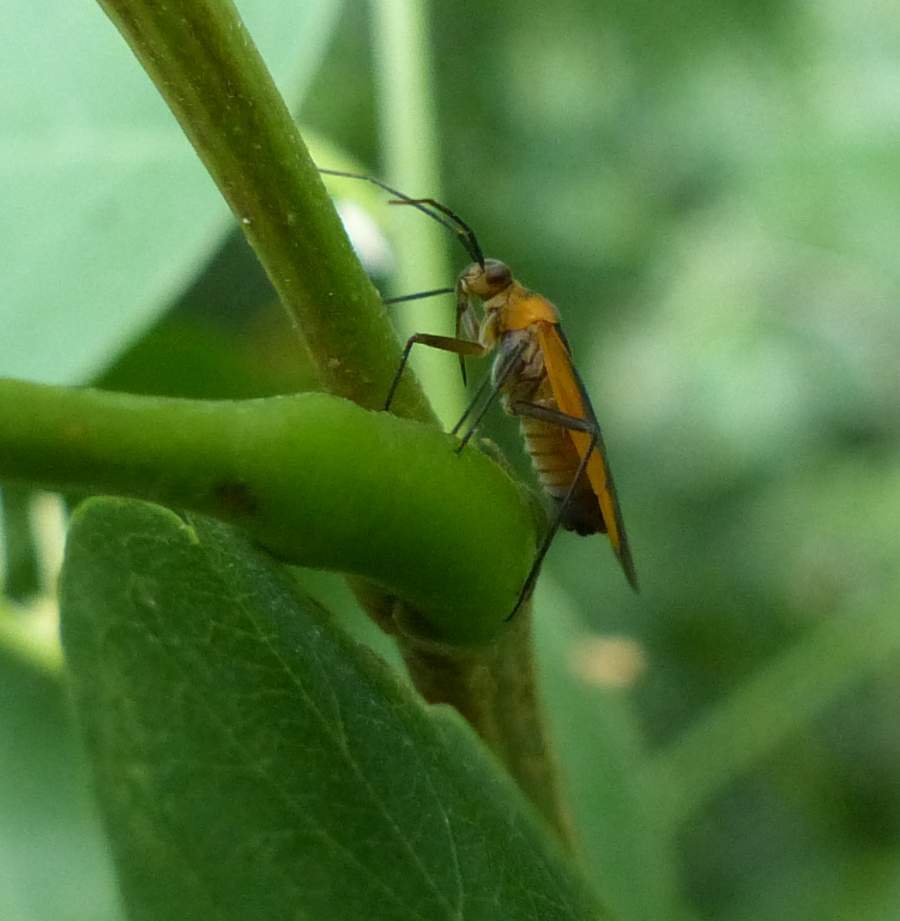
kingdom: Animalia
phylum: Arthropoda
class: Insecta
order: Hemiptera
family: Miridae
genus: Lopidea
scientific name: Lopidea robiniae
